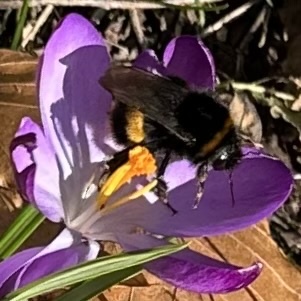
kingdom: Animalia
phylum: Arthropoda
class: Insecta
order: Hymenoptera
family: Apidae
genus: Bombus
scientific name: Bombus terrestris
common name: Buff-tailed bumblebee
